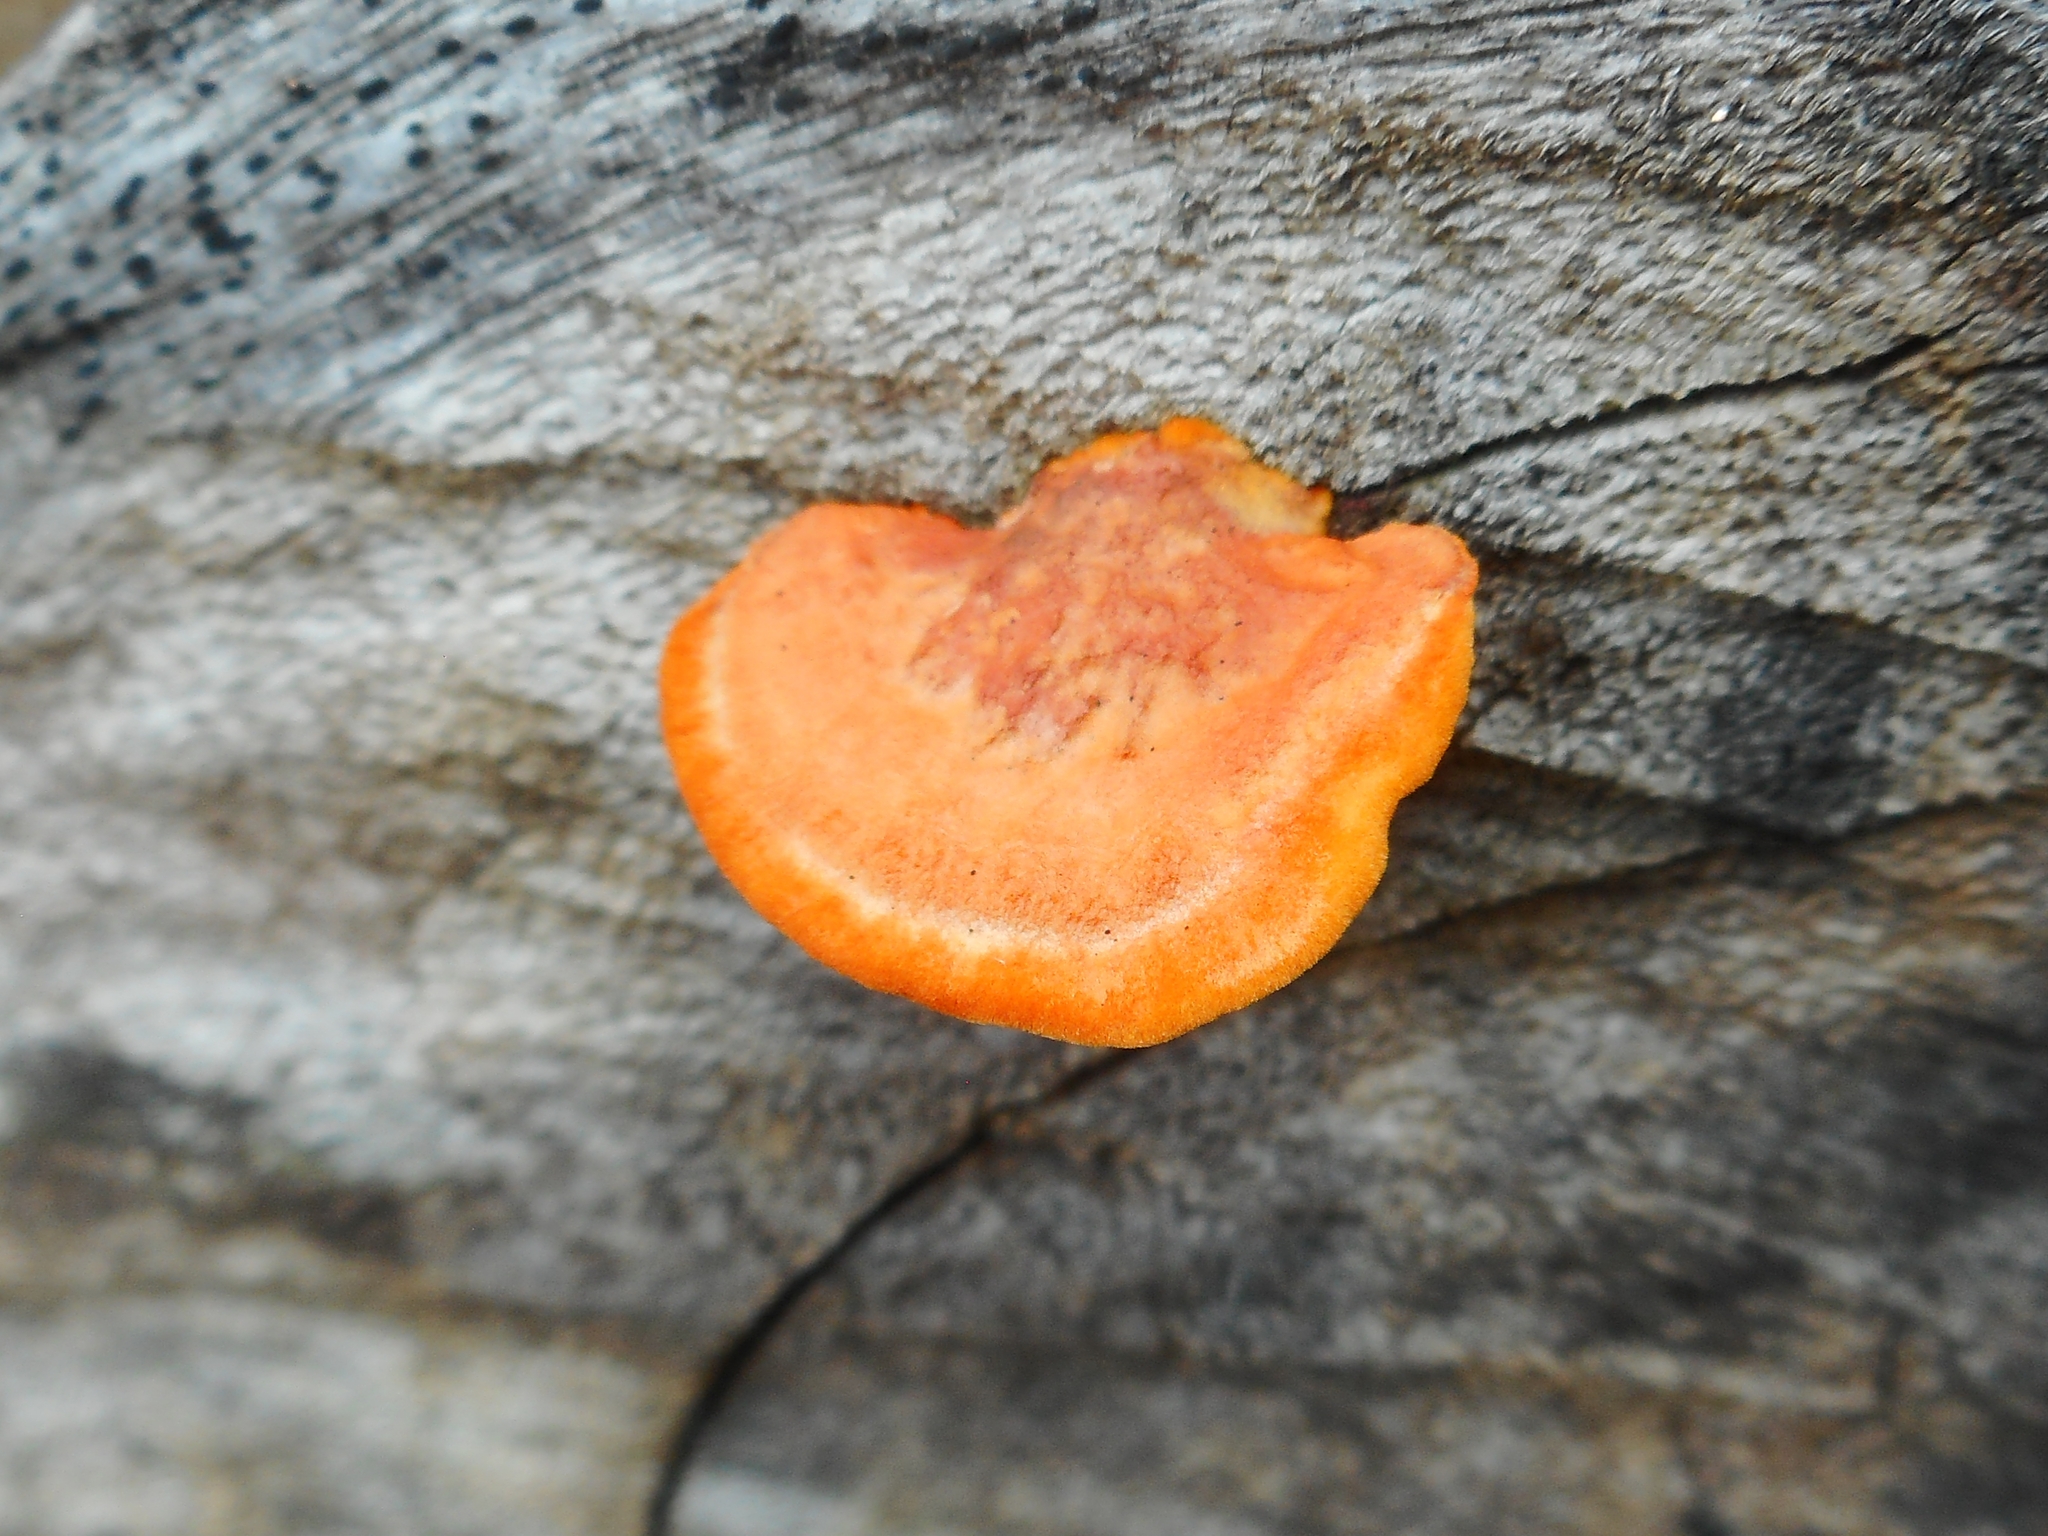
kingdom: Fungi
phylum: Basidiomycota
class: Agaricomycetes
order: Polyporales
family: Polyporaceae
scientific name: Polyporaceae
